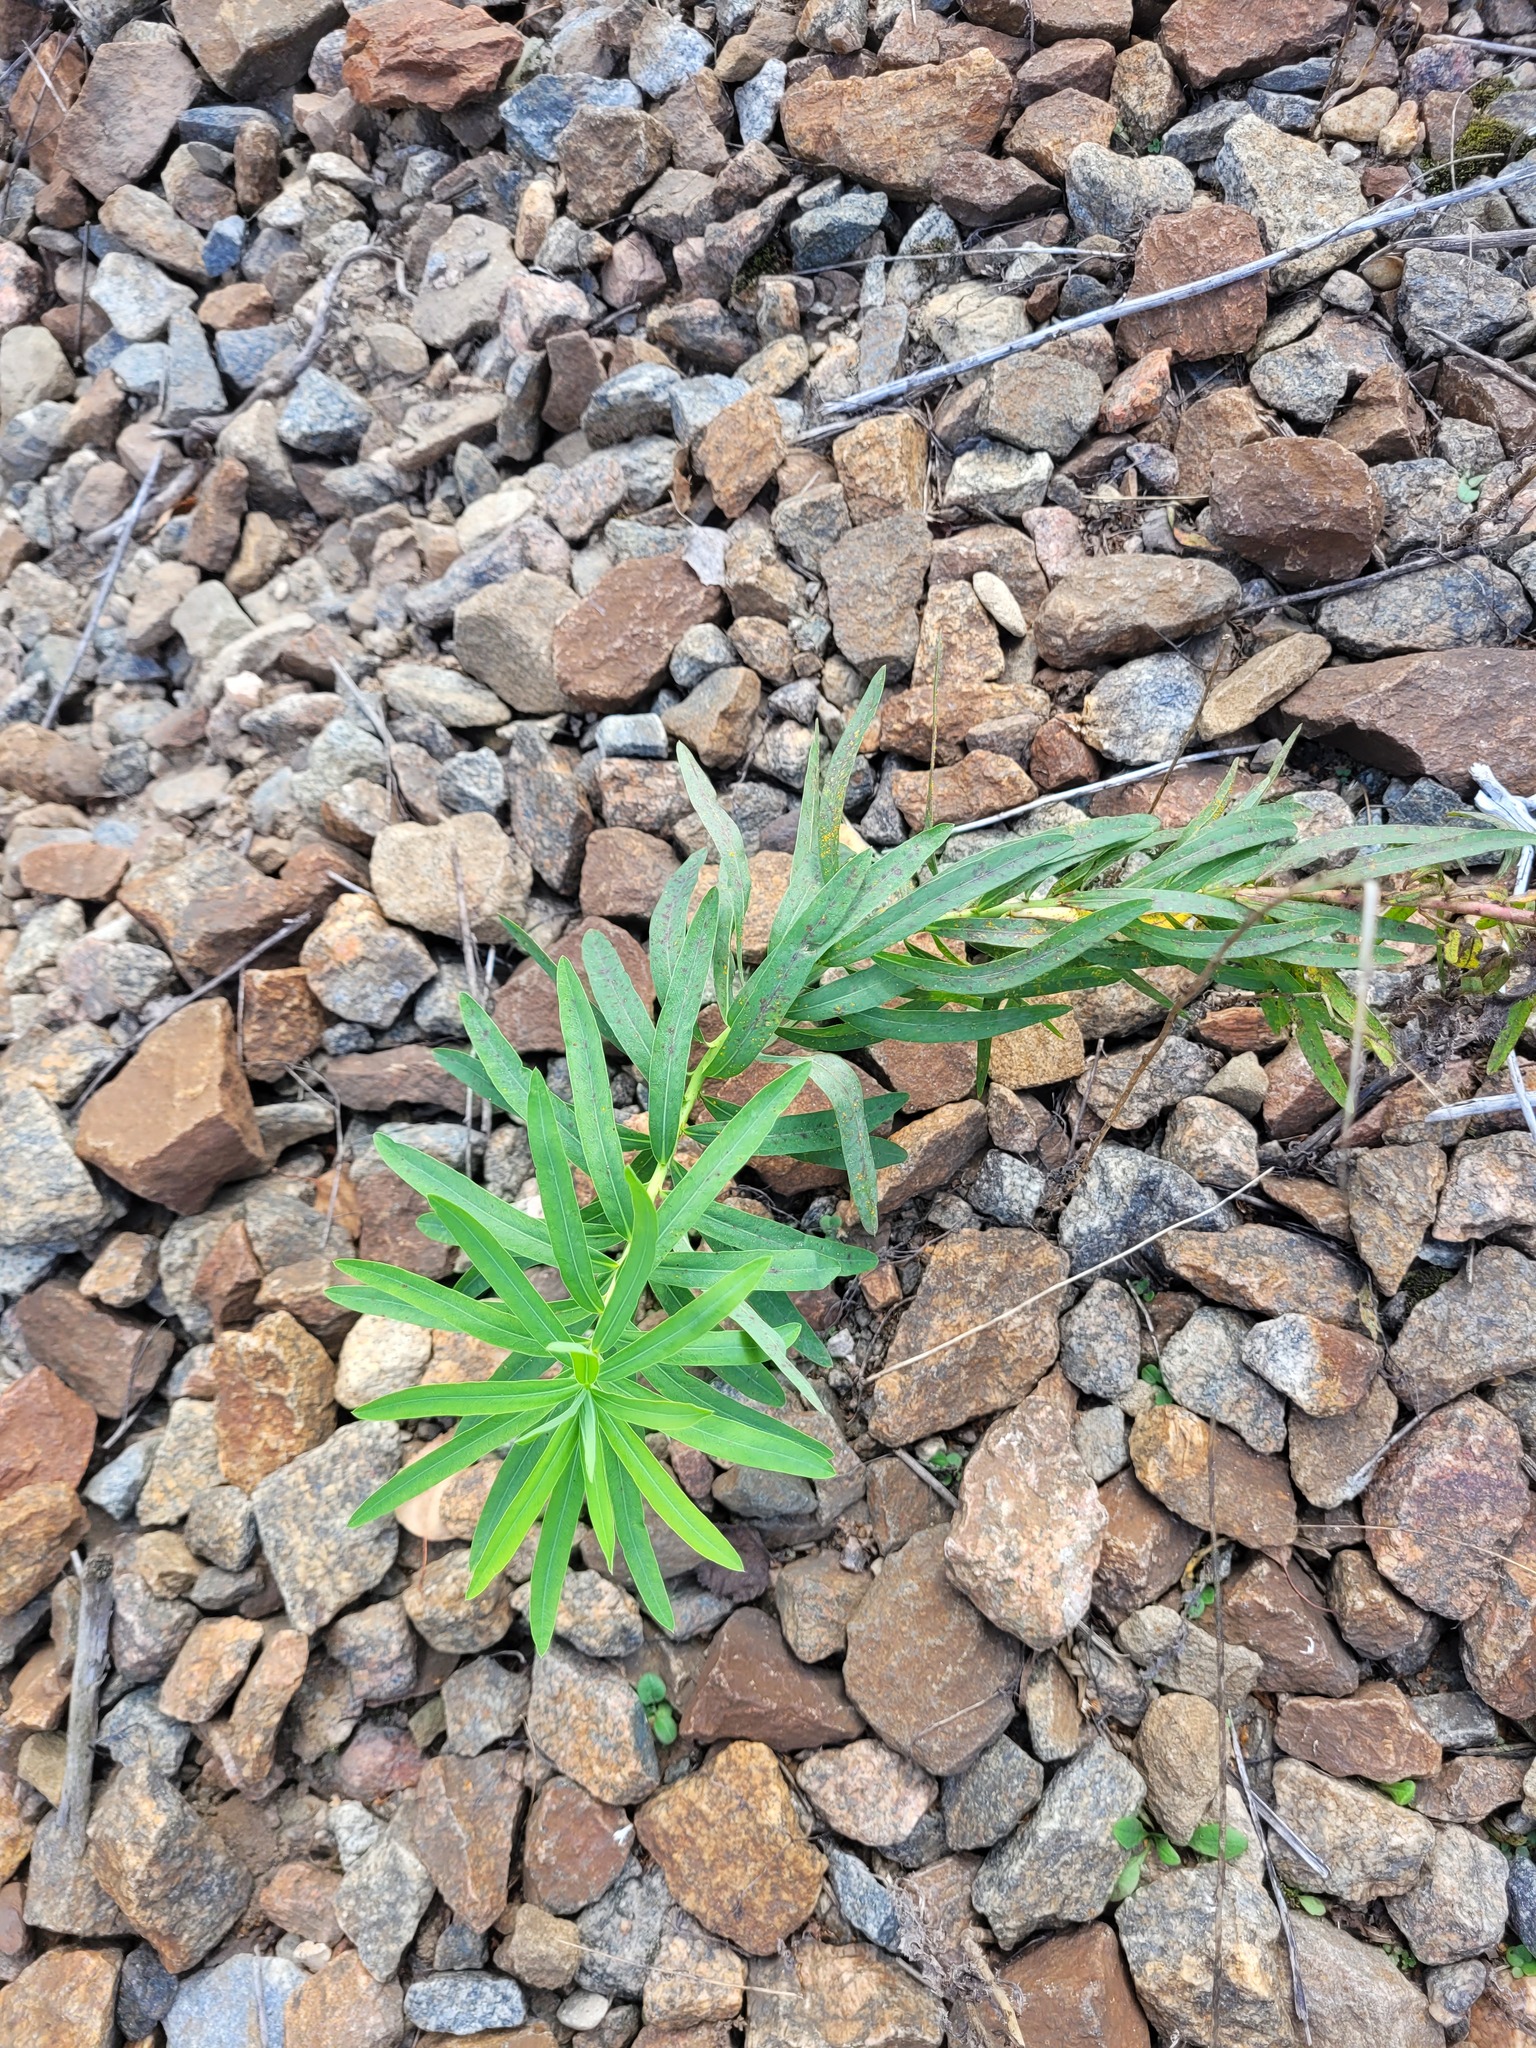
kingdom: Plantae
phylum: Tracheophyta
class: Magnoliopsida
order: Malpighiales
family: Euphorbiaceae
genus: Euphorbia
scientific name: Euphorbia virgata
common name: Leafy spurge
